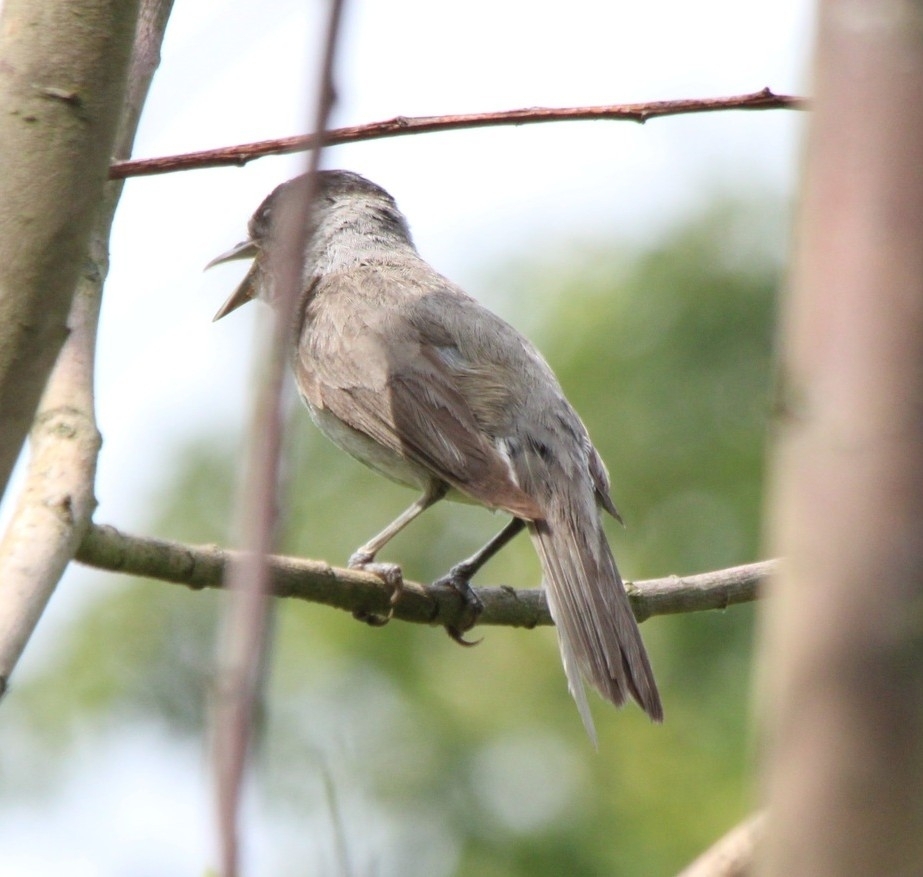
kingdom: Animalia
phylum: Chordata
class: Aves
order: Passeriformes
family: Sylviidae
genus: Sylvia
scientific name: Sylvia atricapilla
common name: Eurasian blackcap
